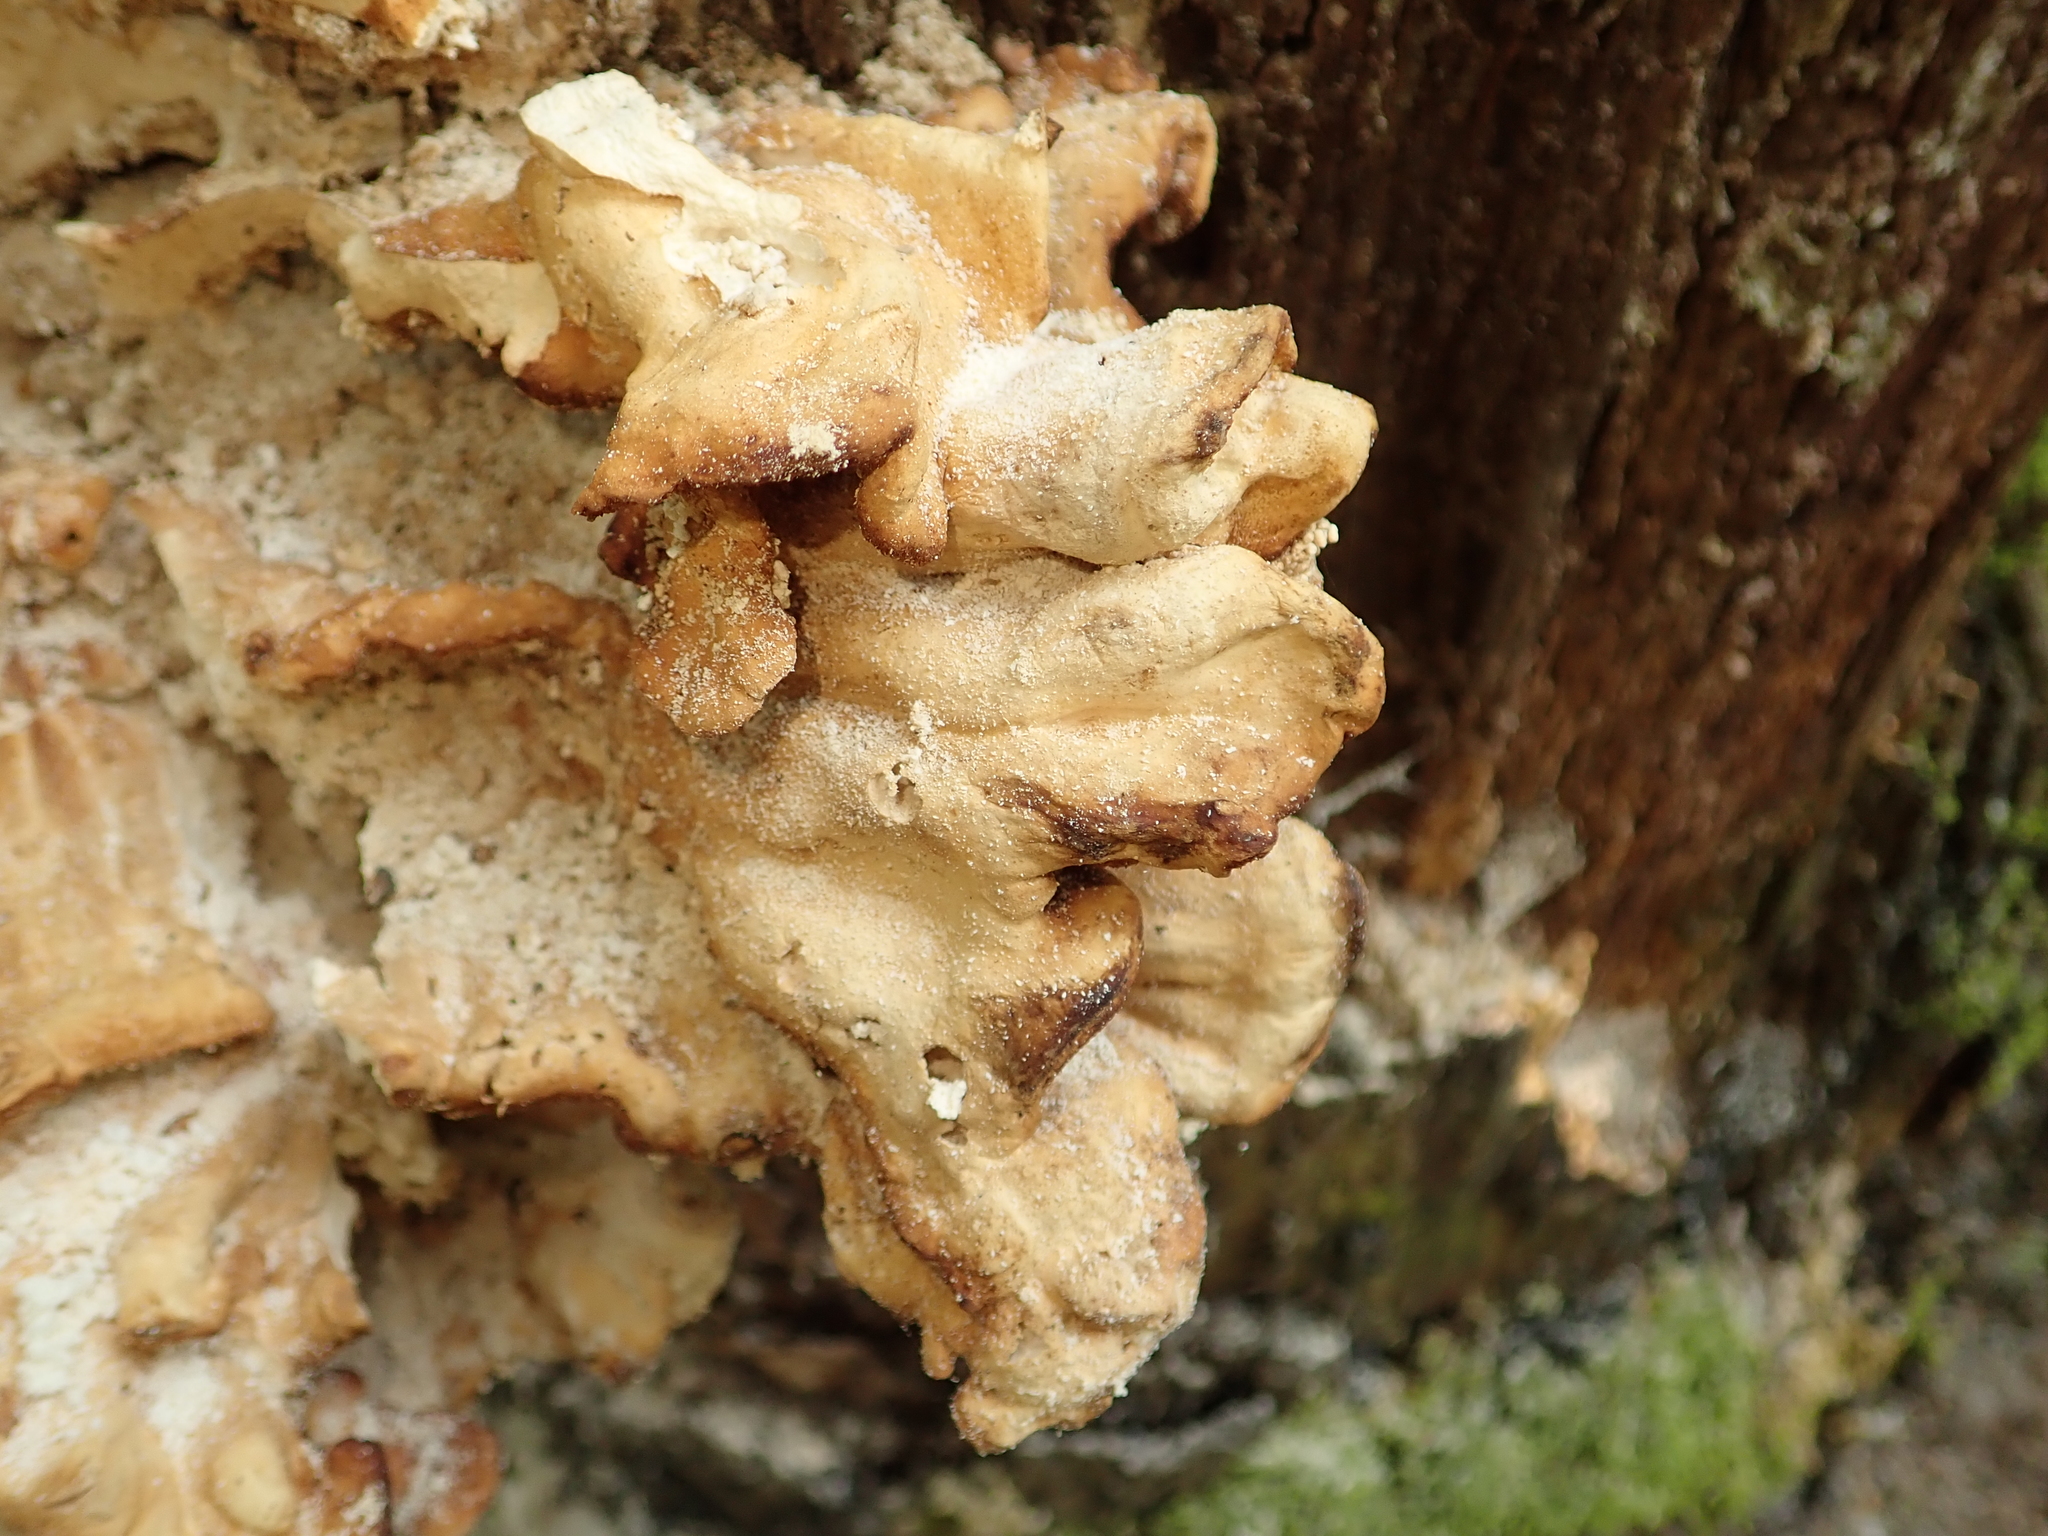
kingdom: Fungi
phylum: Basidiomycota
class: Agaricomycetes
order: Polyporales
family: Laetiporaceae
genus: Laetiporus
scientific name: Laetiporus sulphureus
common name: Chicken of the woods
